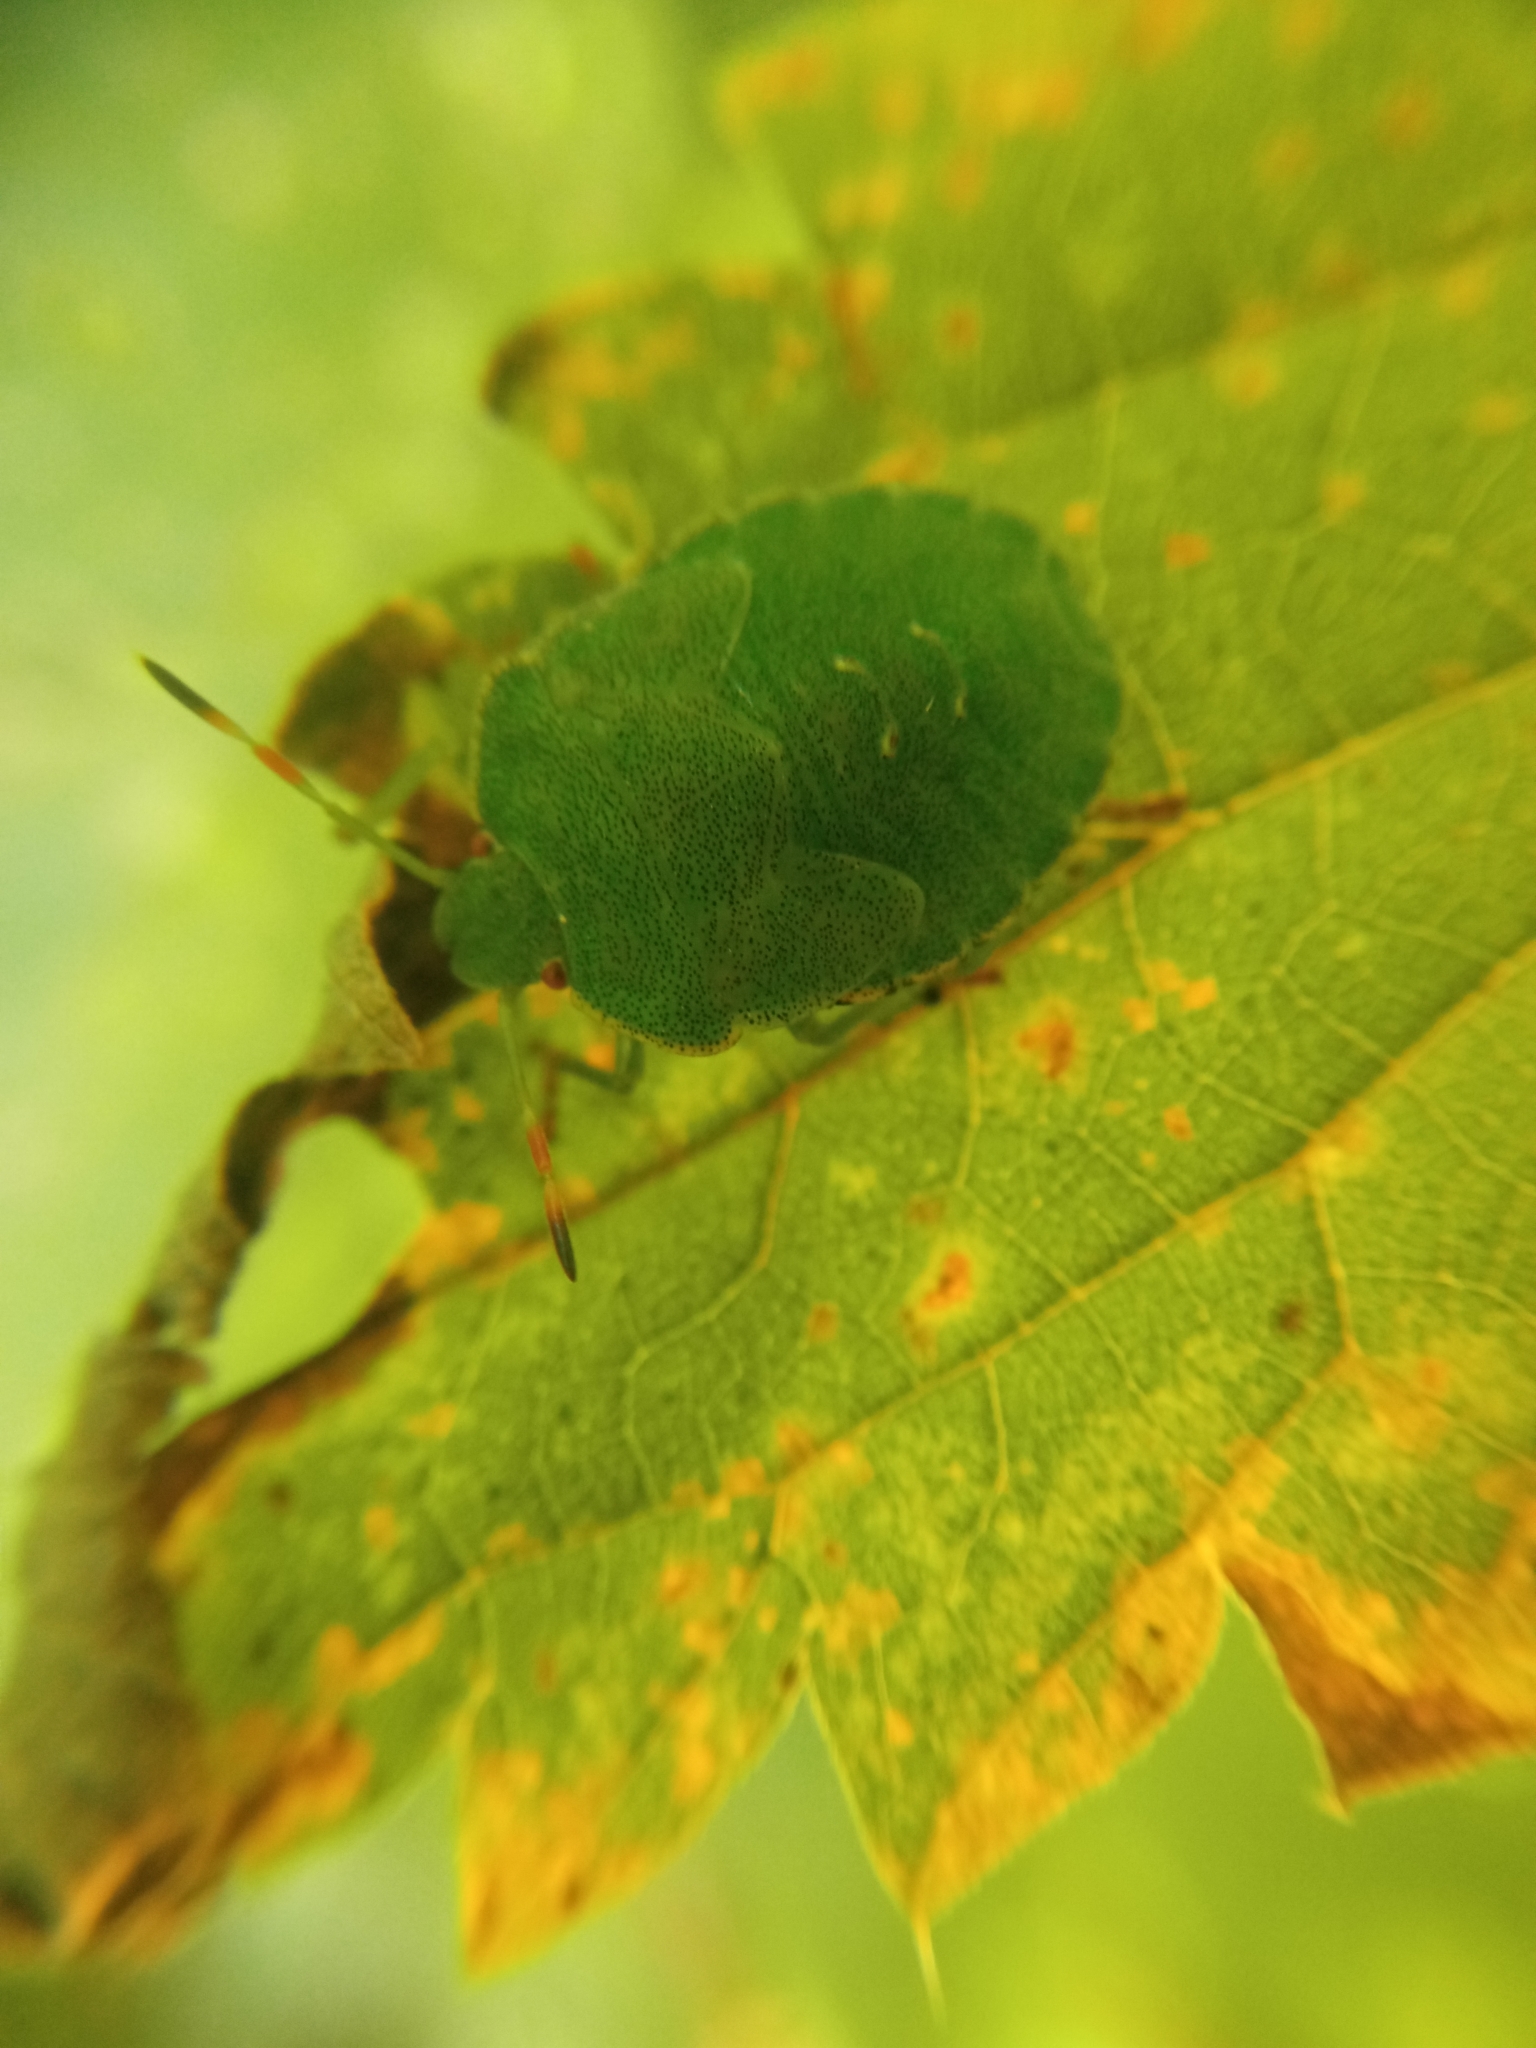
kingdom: Animalia
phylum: Arthropoda
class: Insecta
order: Hemiptera
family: Pentatomidae
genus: Palomena
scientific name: Palomena prasina
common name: Green shieldbug
